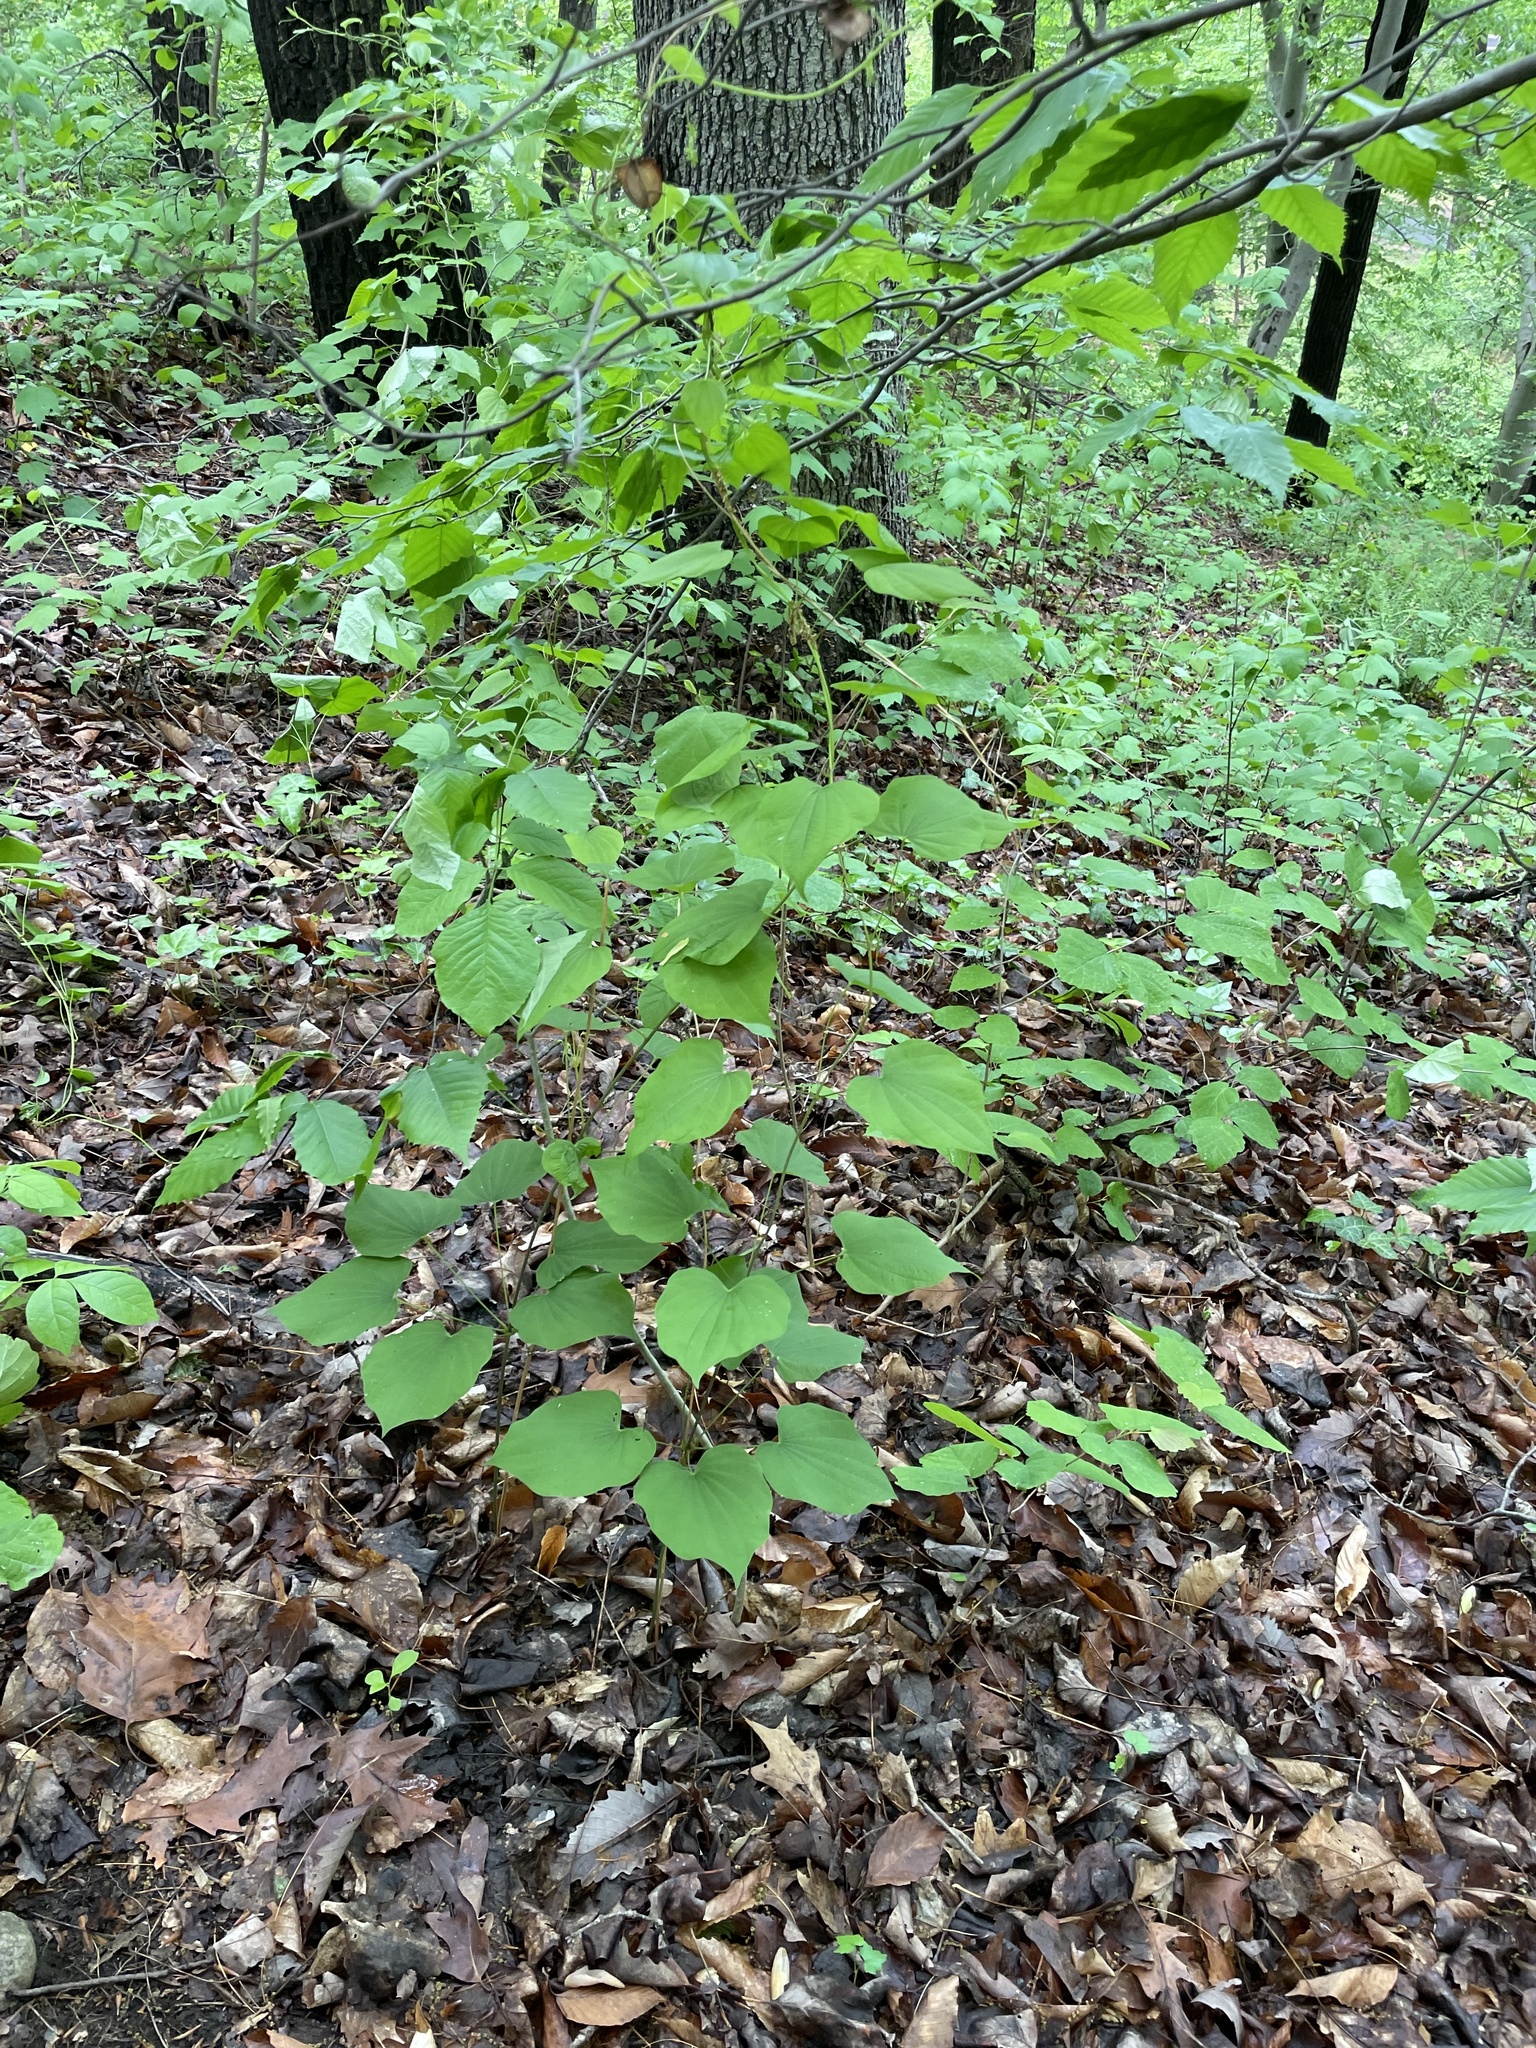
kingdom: Plantae
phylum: Tracheophyta
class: Liliopsida
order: Dioscoreales
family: Dioscoreaceae
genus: Dioscorea
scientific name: Dioscorea villosa
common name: Wild yam
